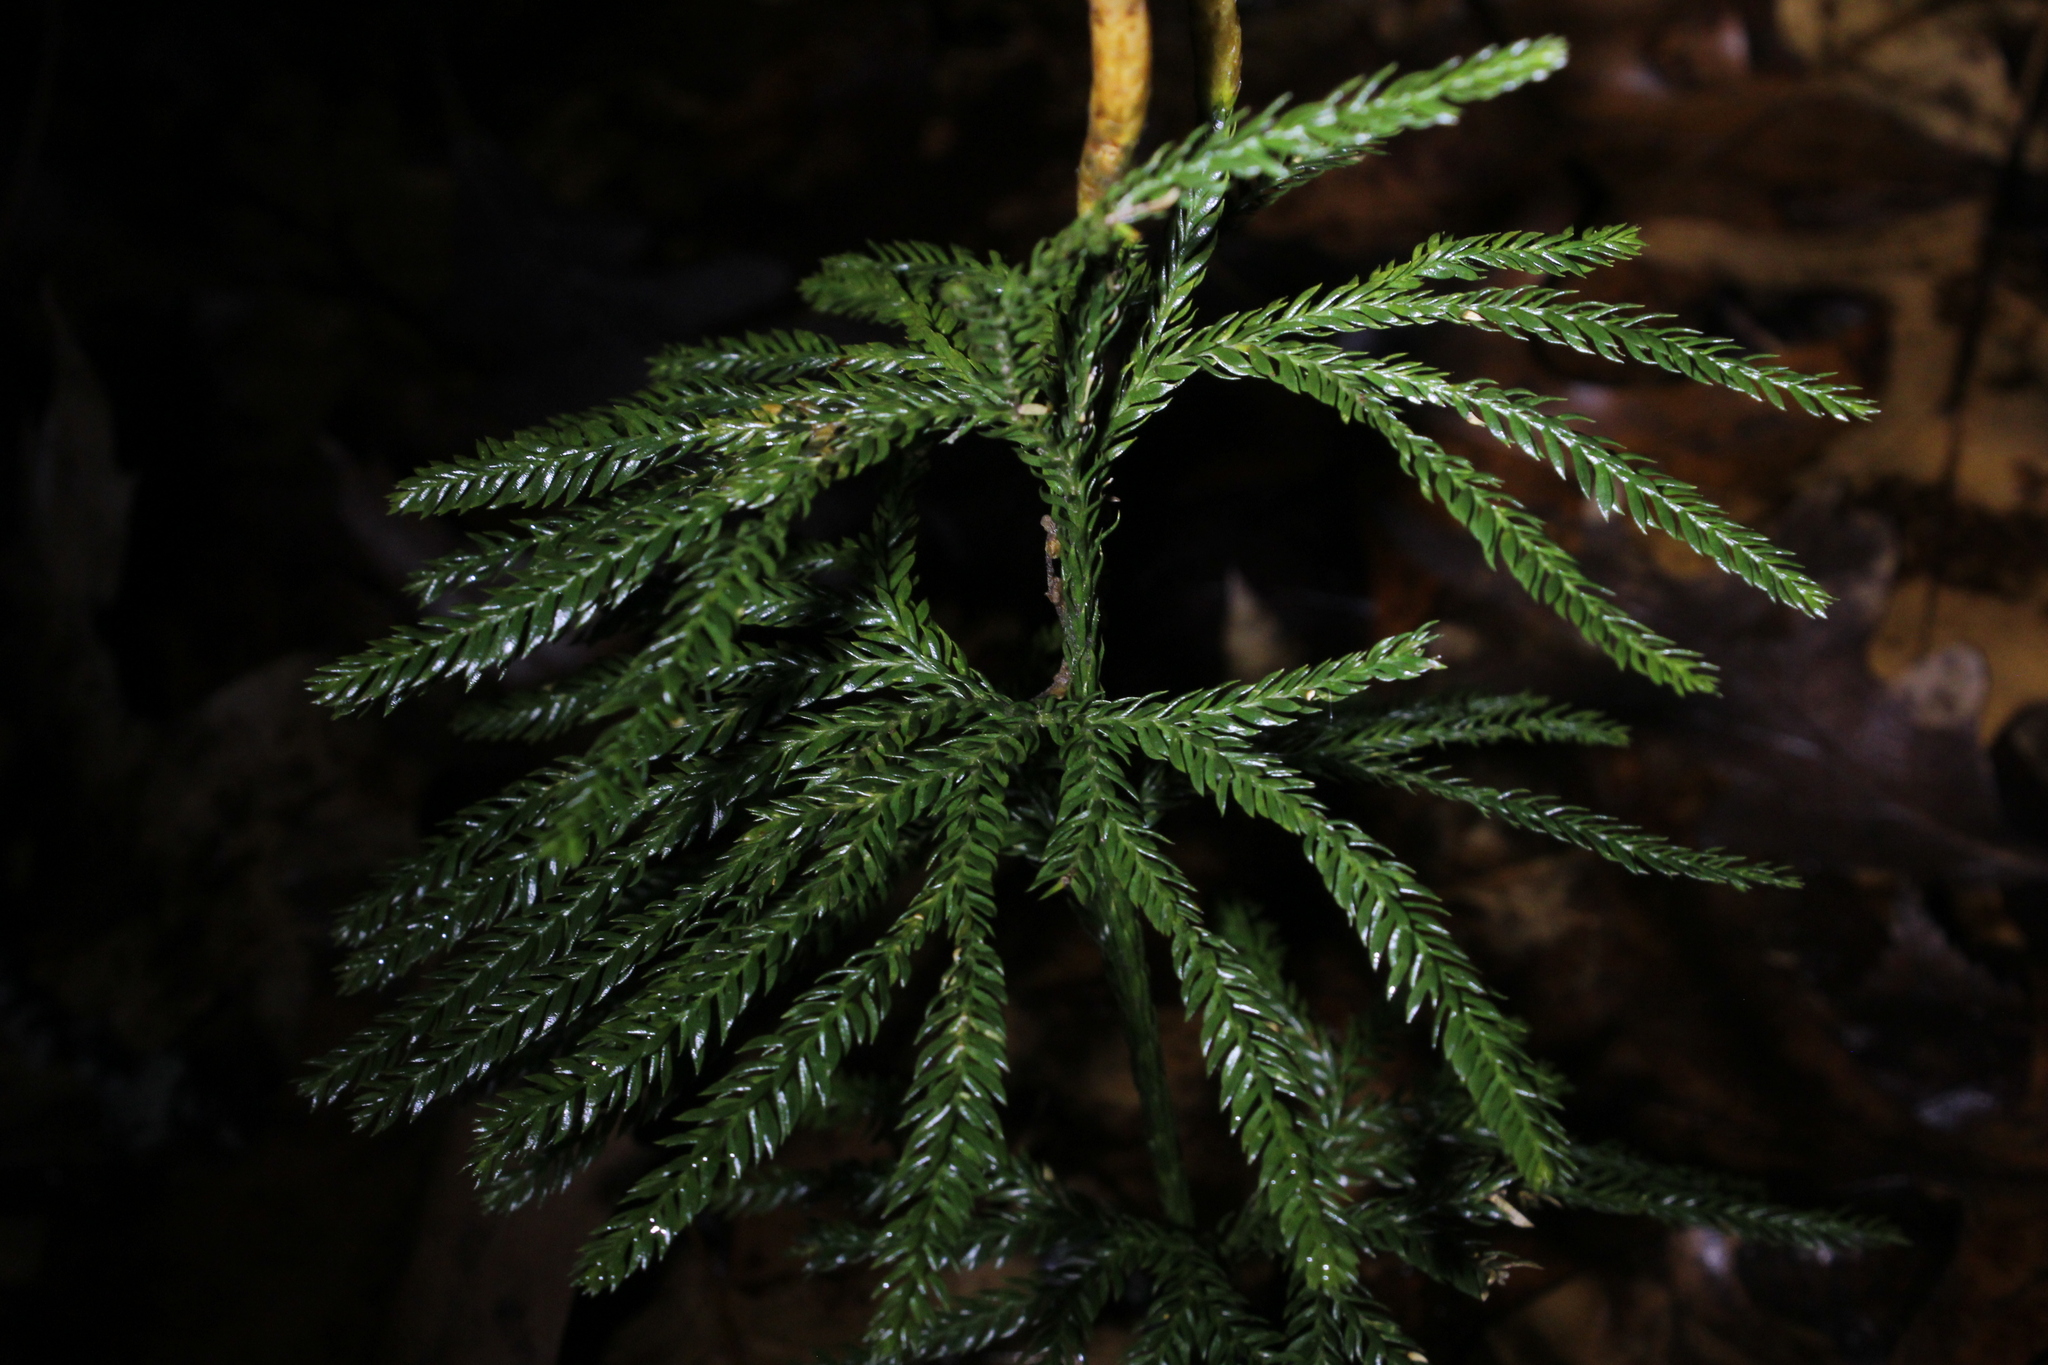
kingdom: Plantae
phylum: Tracheophyta
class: Lycopodiopsida
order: Lycopodiales
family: Lycopodiaceae
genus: Dendrolycopodium
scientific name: Dendrolycopodium obscurum
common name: Common ground-pine
